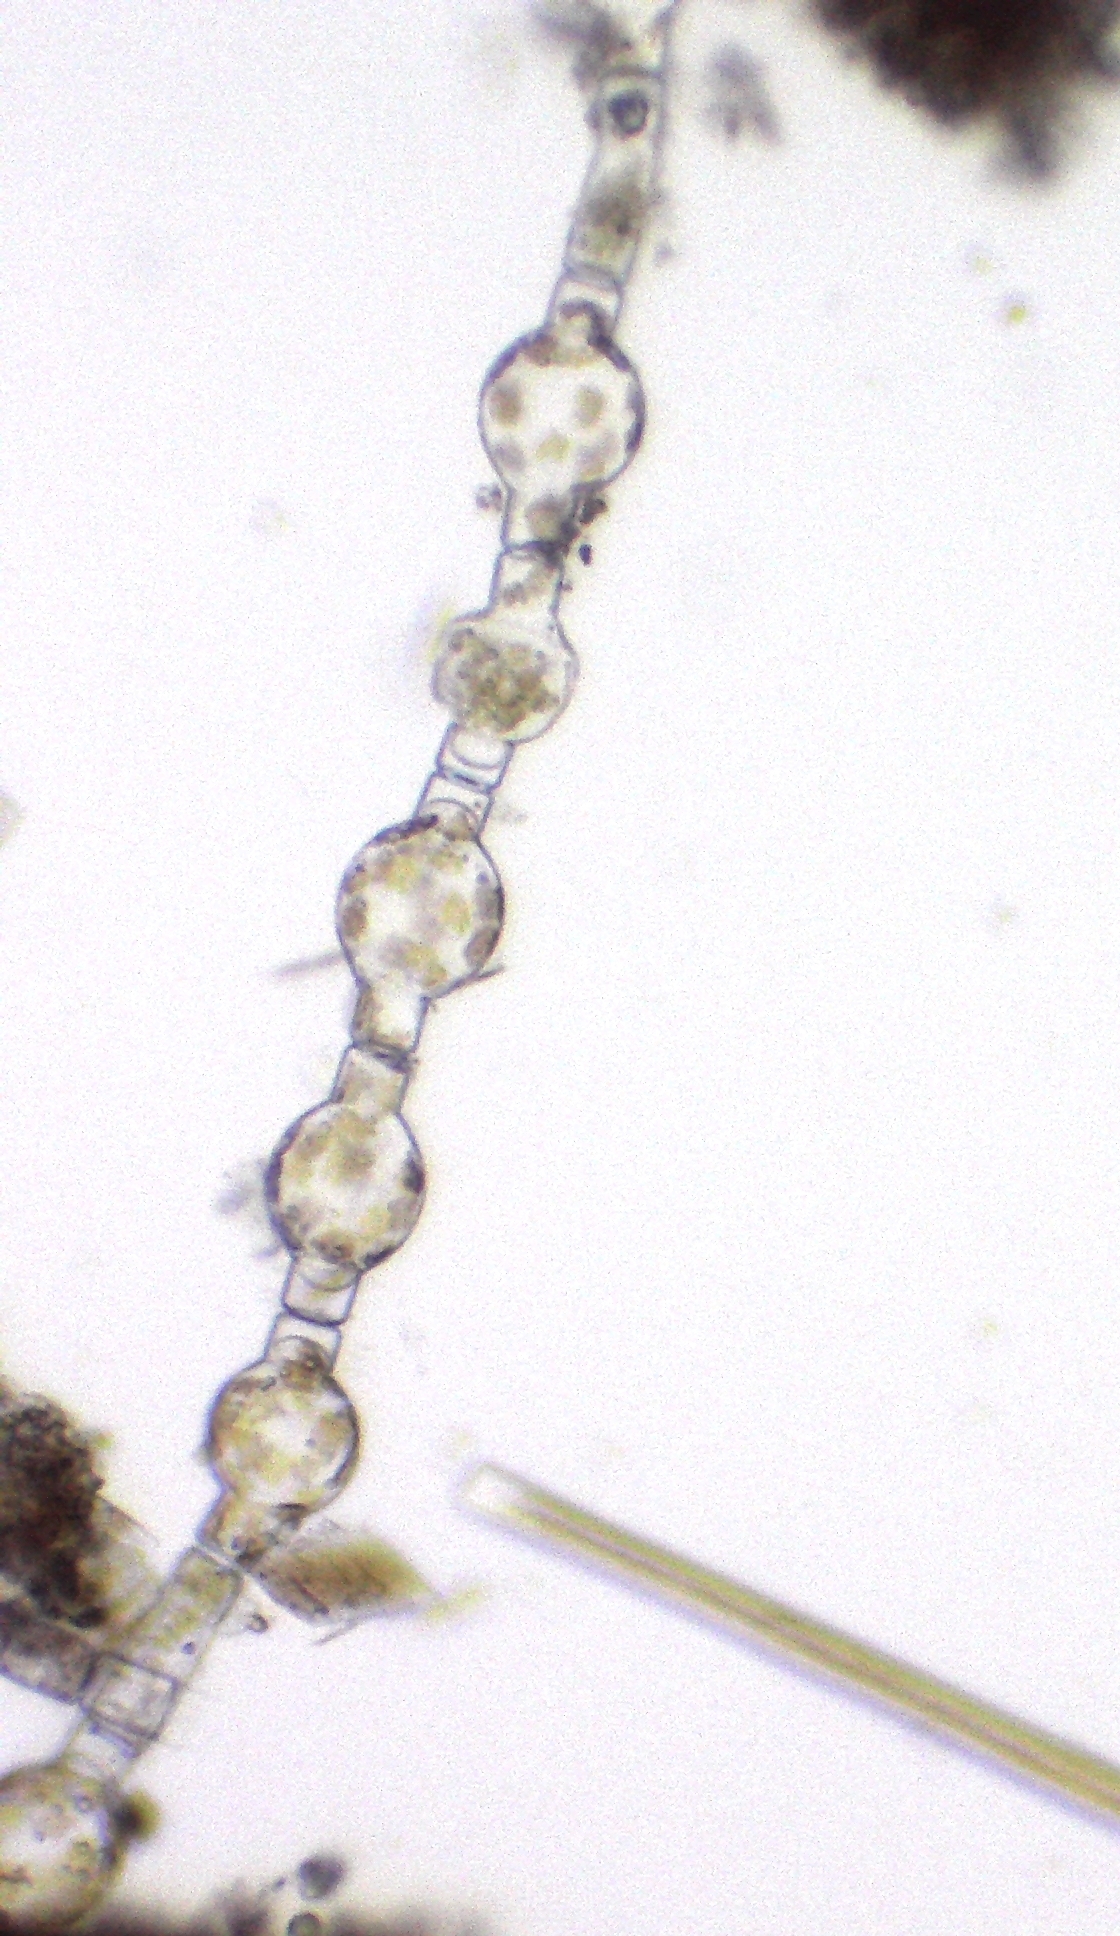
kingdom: Chromista
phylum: Ochrophyta
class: Bacillariophyceae
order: Melosirales
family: Melosiraceae
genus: Melosira
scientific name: Melosira varians
